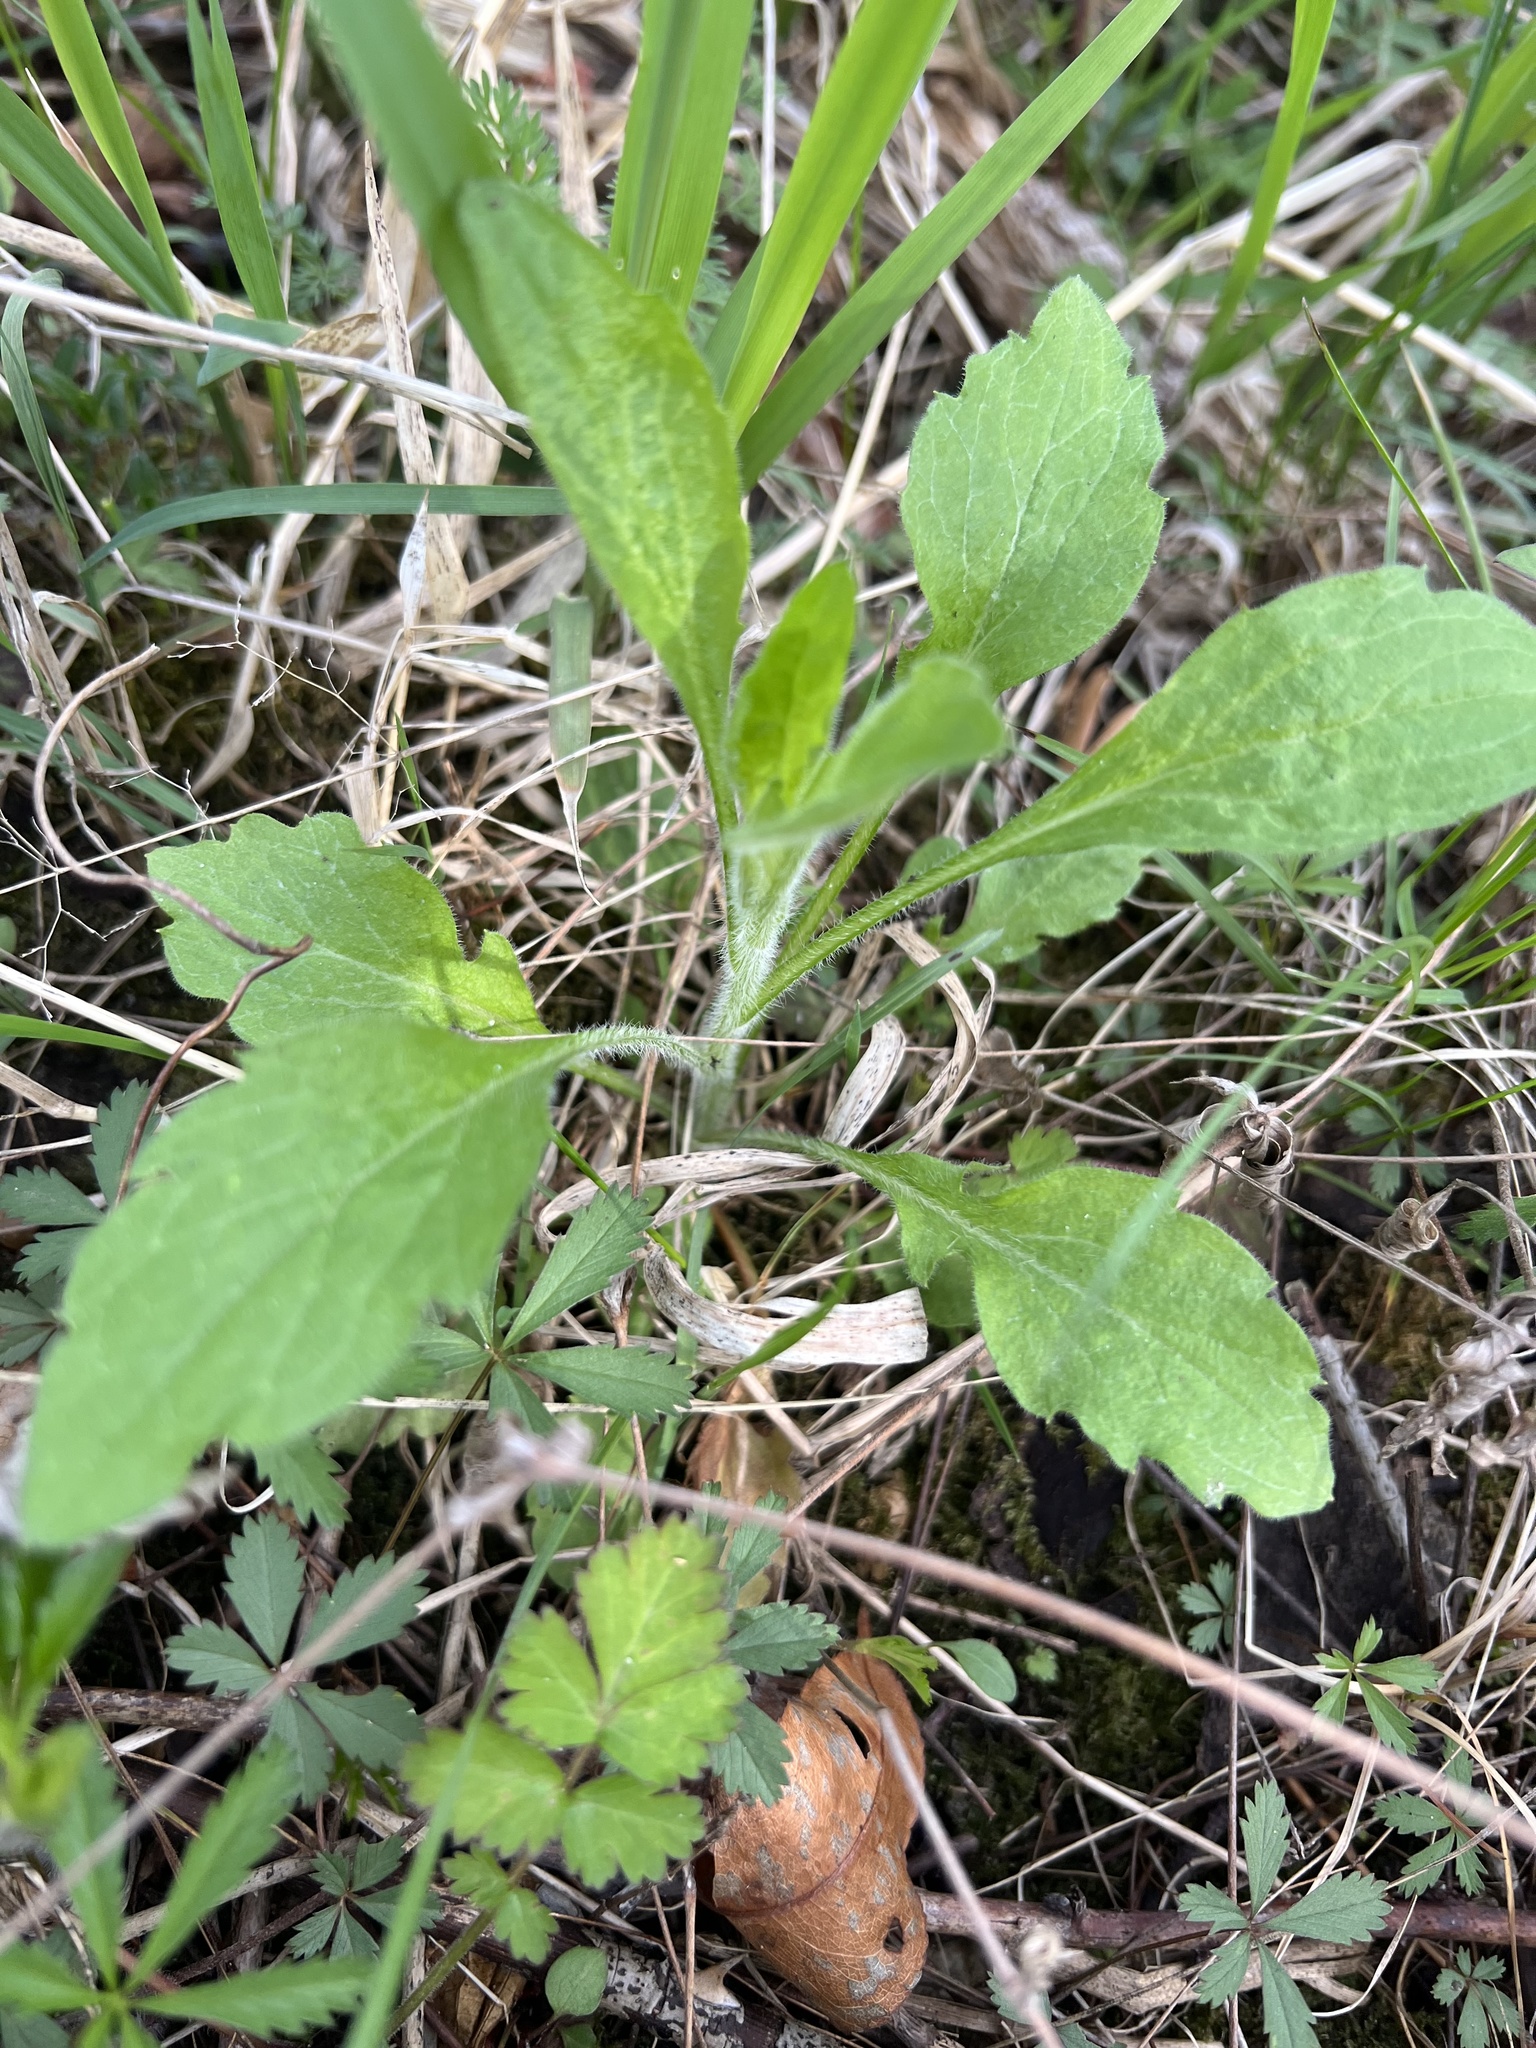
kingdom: Plantae
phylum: Tracheophyta
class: Magnoliopsida
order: Asterales
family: Asteraceae
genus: Erigeron
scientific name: Erigeron annuus
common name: Tall fleabane
